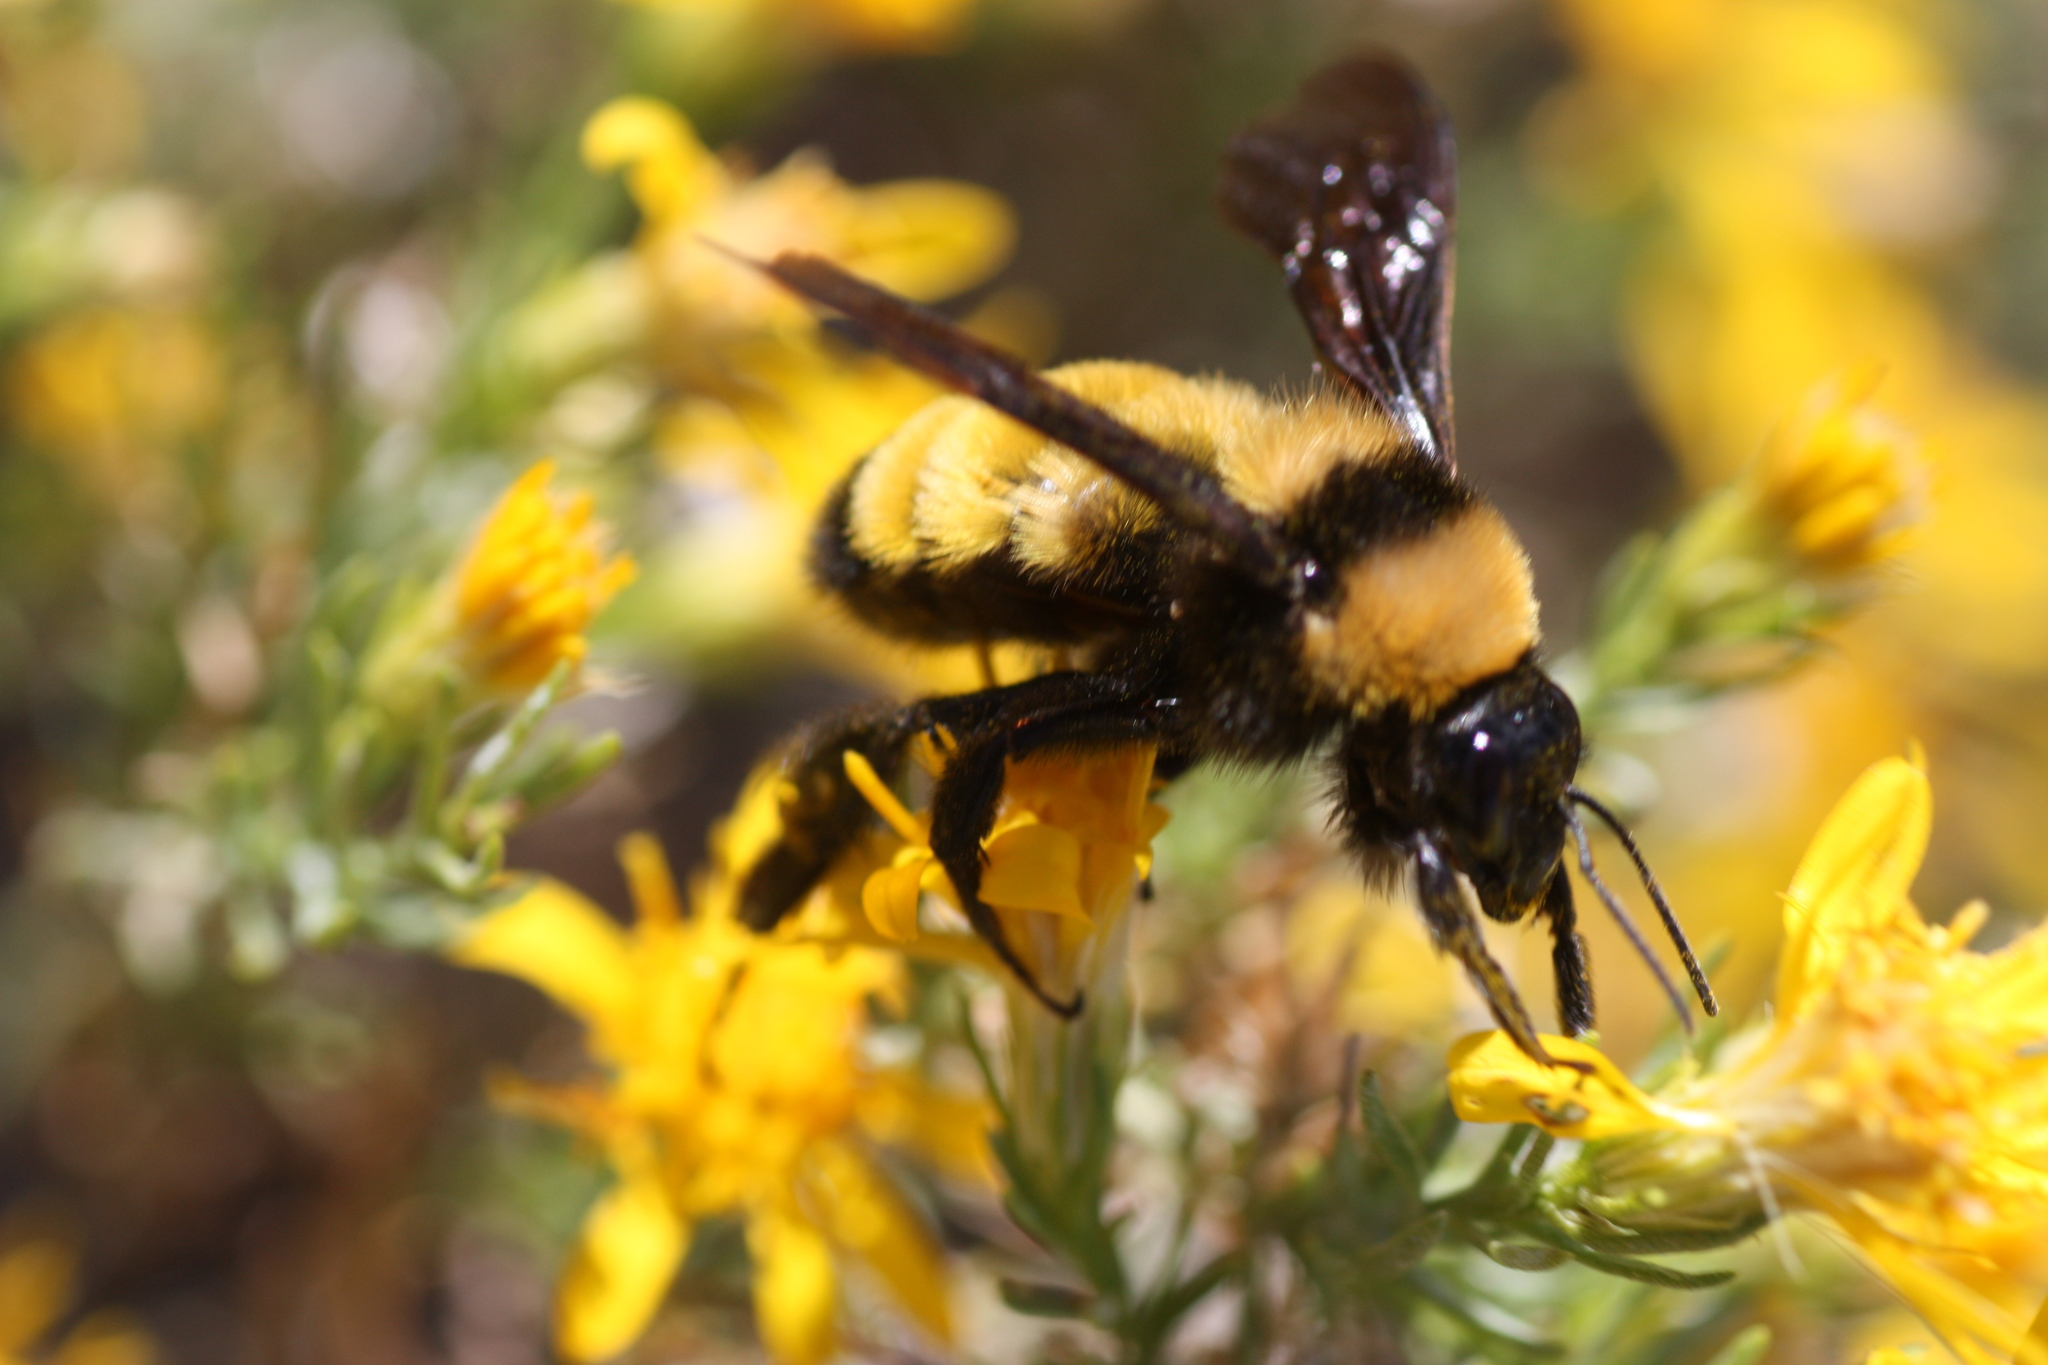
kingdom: Animalia
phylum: Arthropoda
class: Insecta
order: Hymenoptera
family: Apidae
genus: Bombus
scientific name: Bombus sonorus
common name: Sonoran bumble bee
